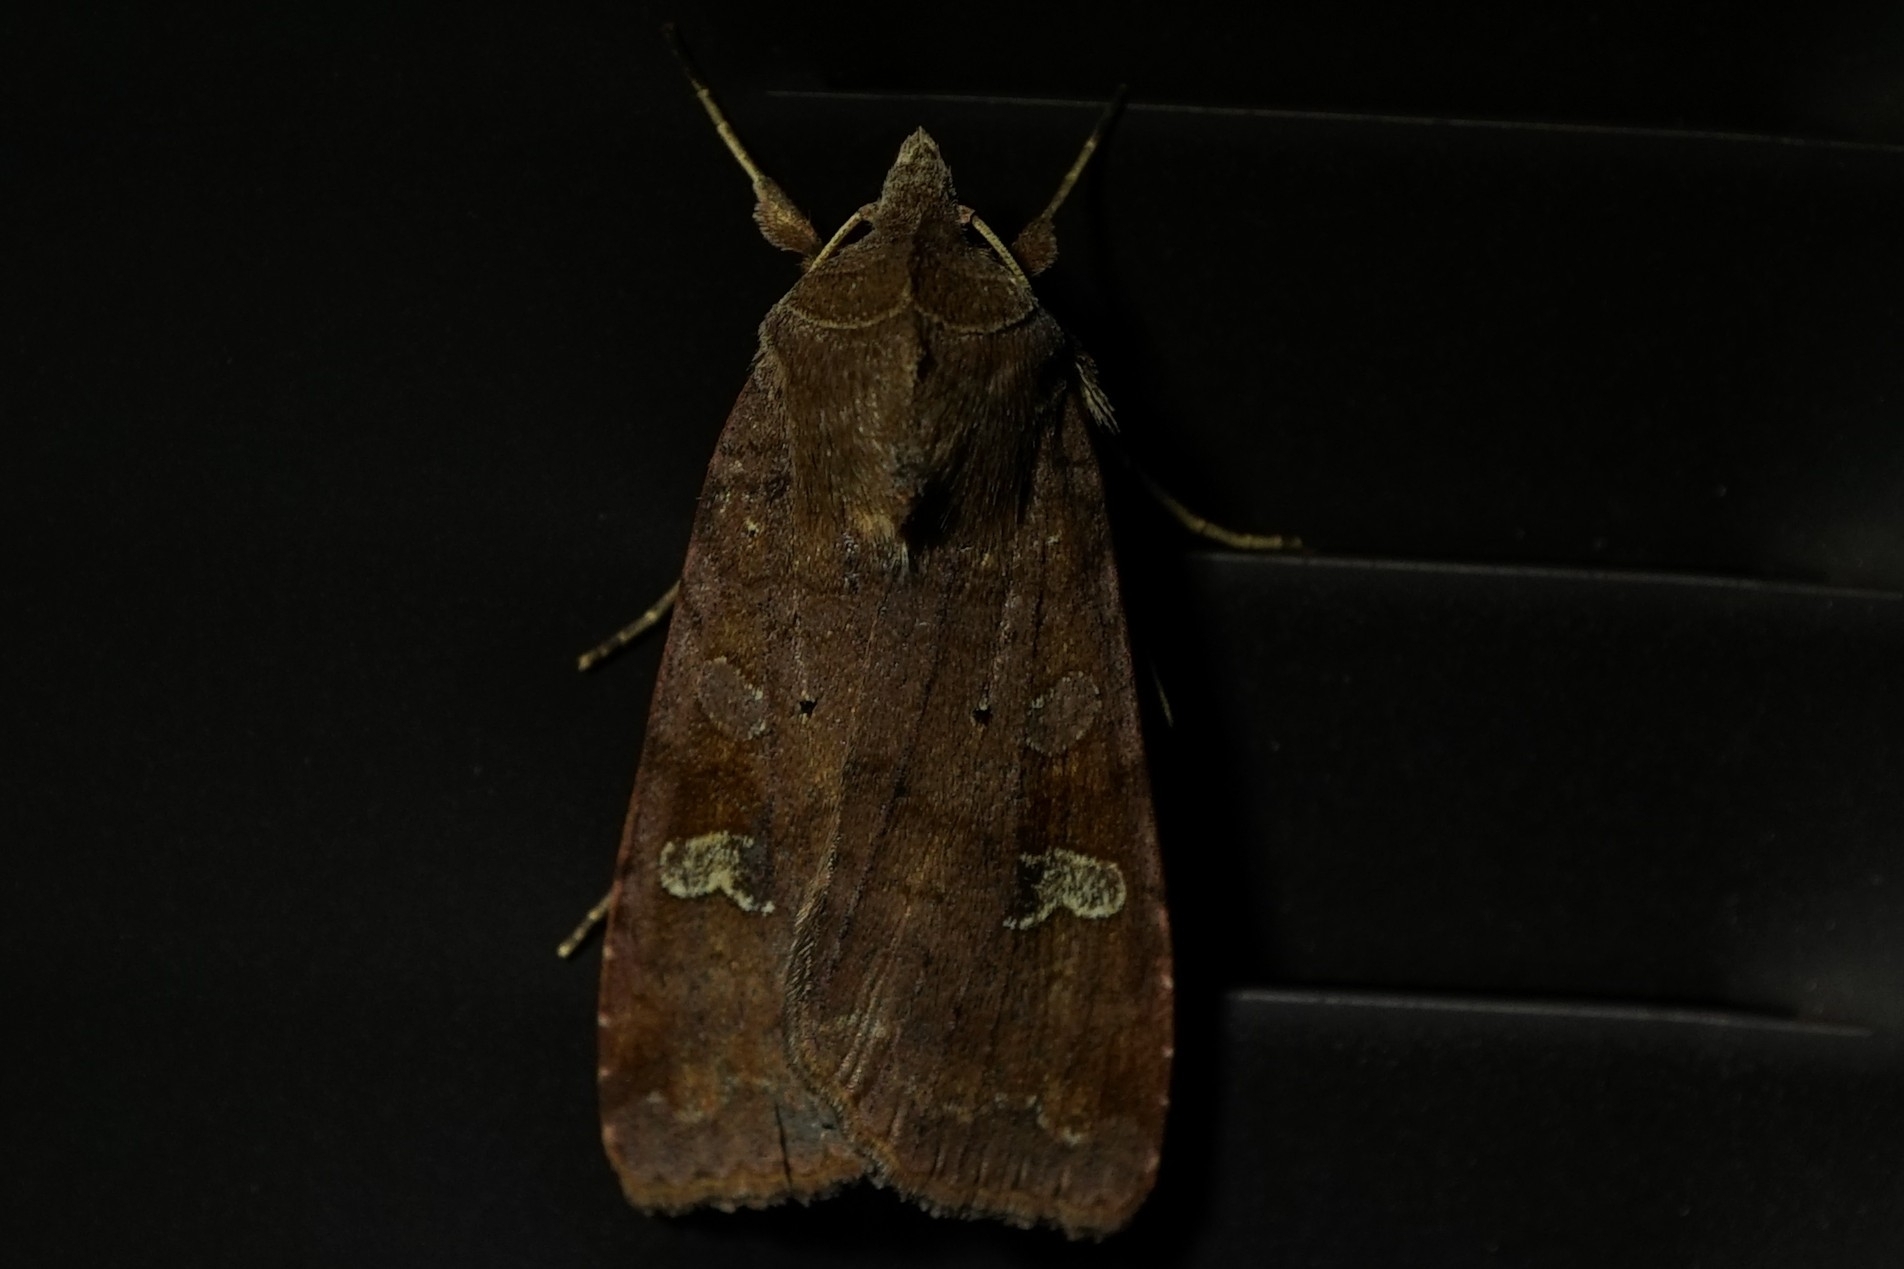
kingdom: Animalia
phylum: Arthropoda
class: Insecta
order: Lepidoptera
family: Noctuidae
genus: Diarsia
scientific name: Diarsia canescens
